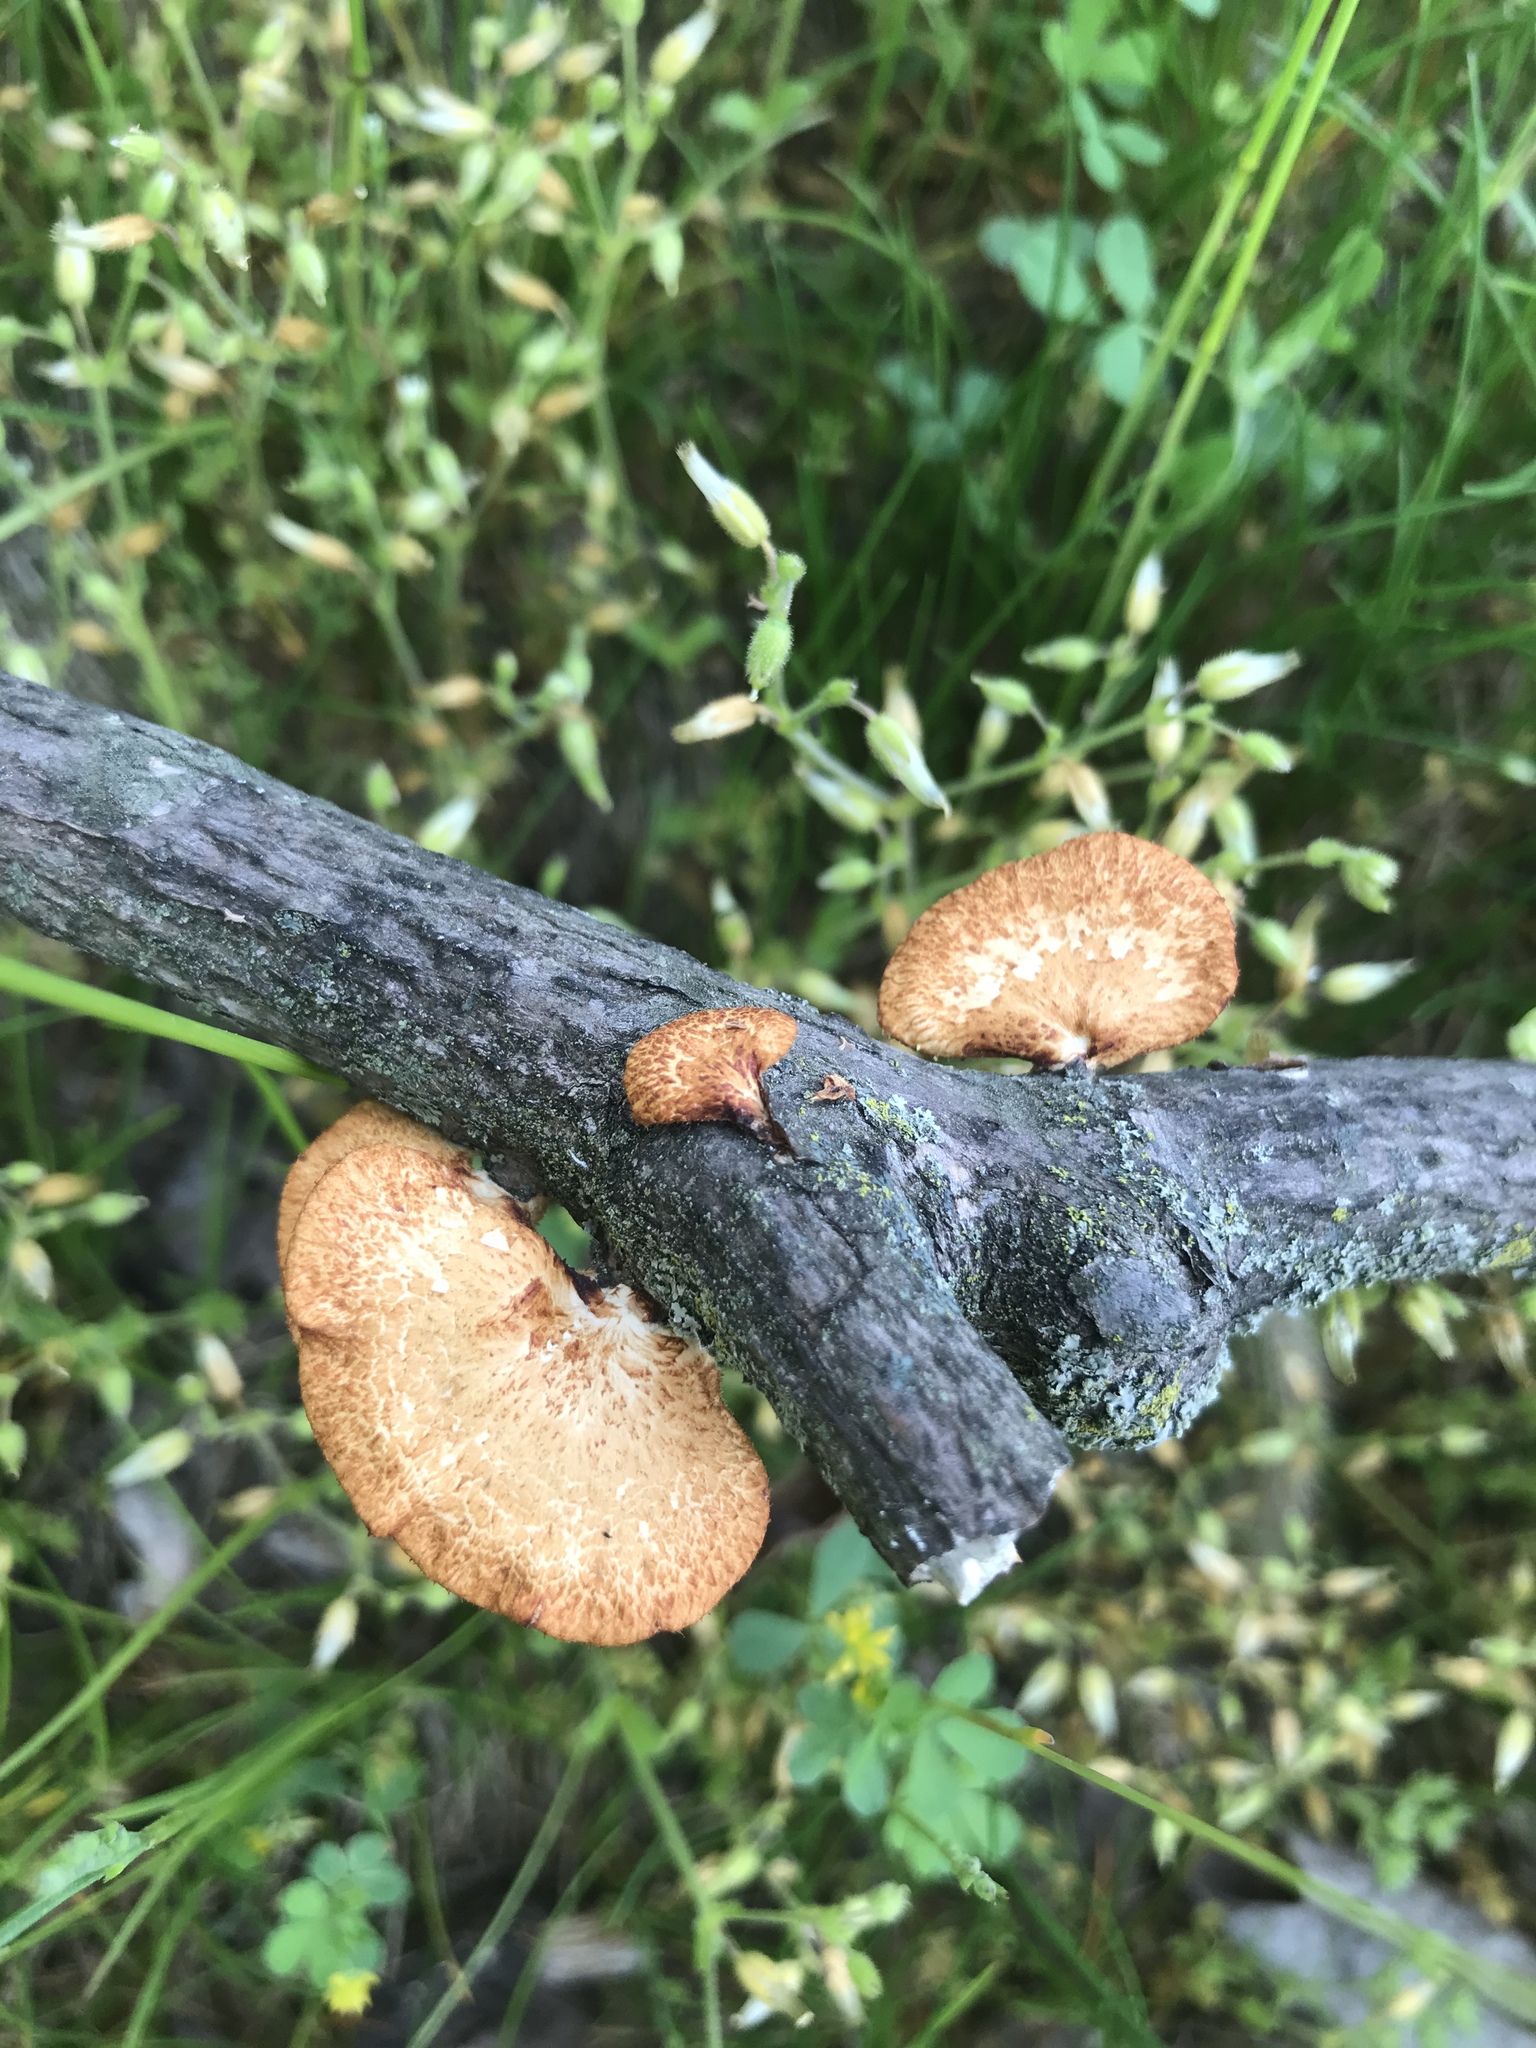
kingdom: Fungi
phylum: Basidiomycota
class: Agaricomycetes
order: Polyporales
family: Polyporaceae
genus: Neofavolus
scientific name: Neofavolus alveolaris
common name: Hexagonal-pored polypore
